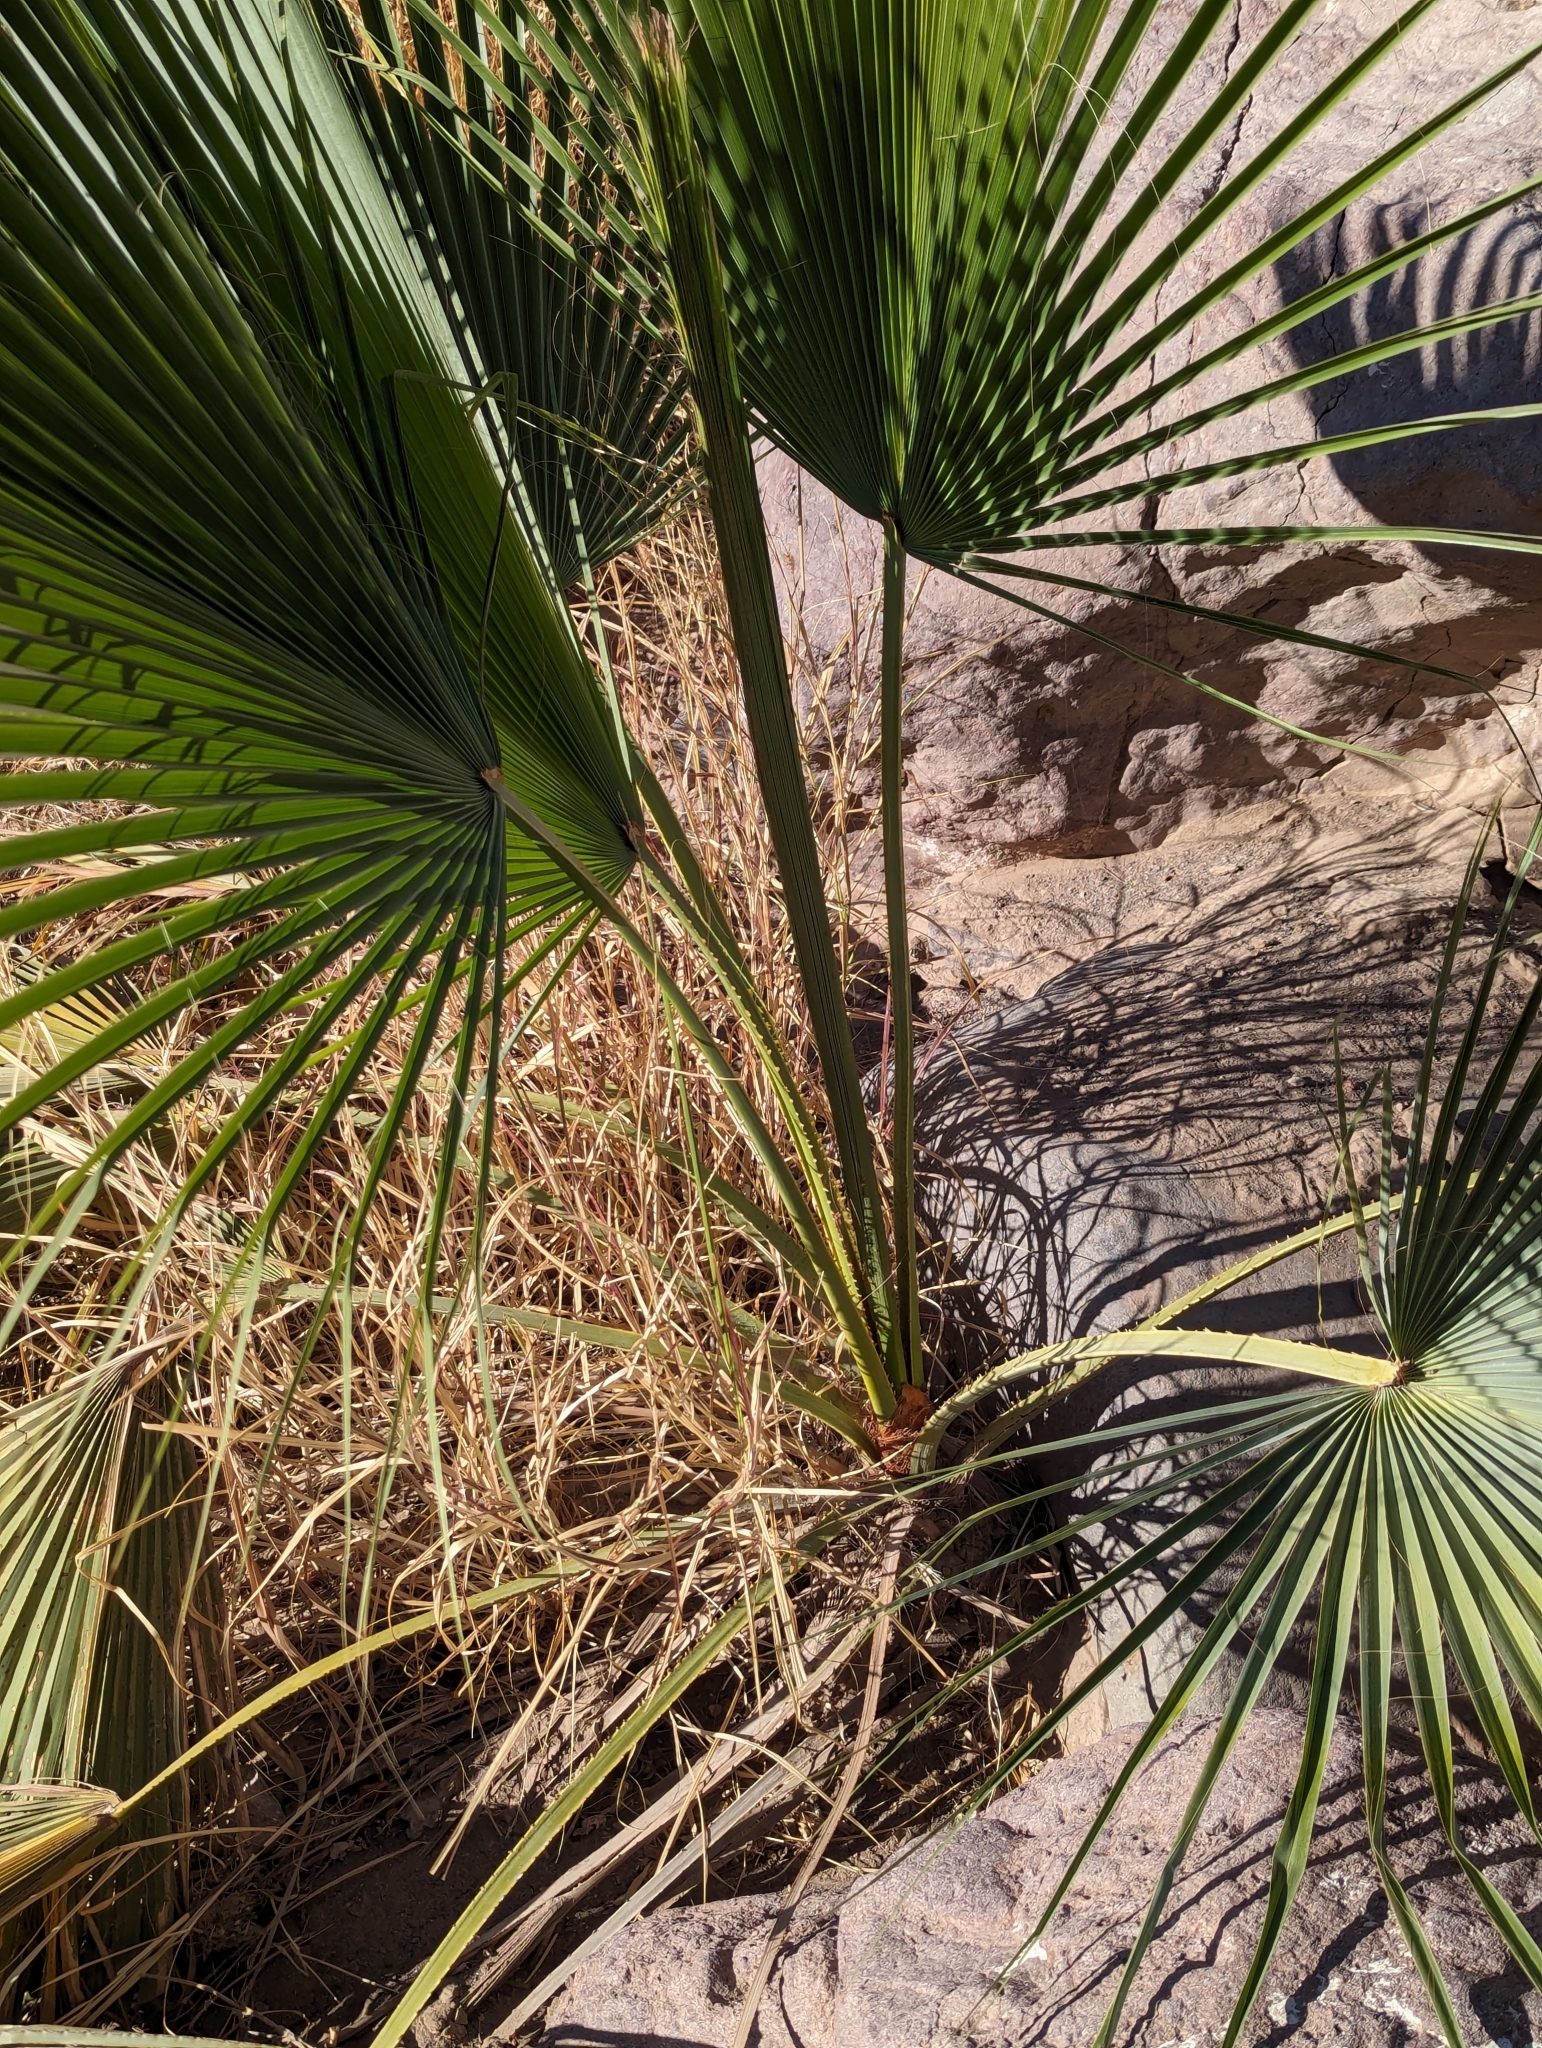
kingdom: Plantae
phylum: Tracheophyta
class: Liliopsida
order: Arecales
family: Arecaceae
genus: Washingtonia
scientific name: Washingtonia robusta
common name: Mexican fan palm
